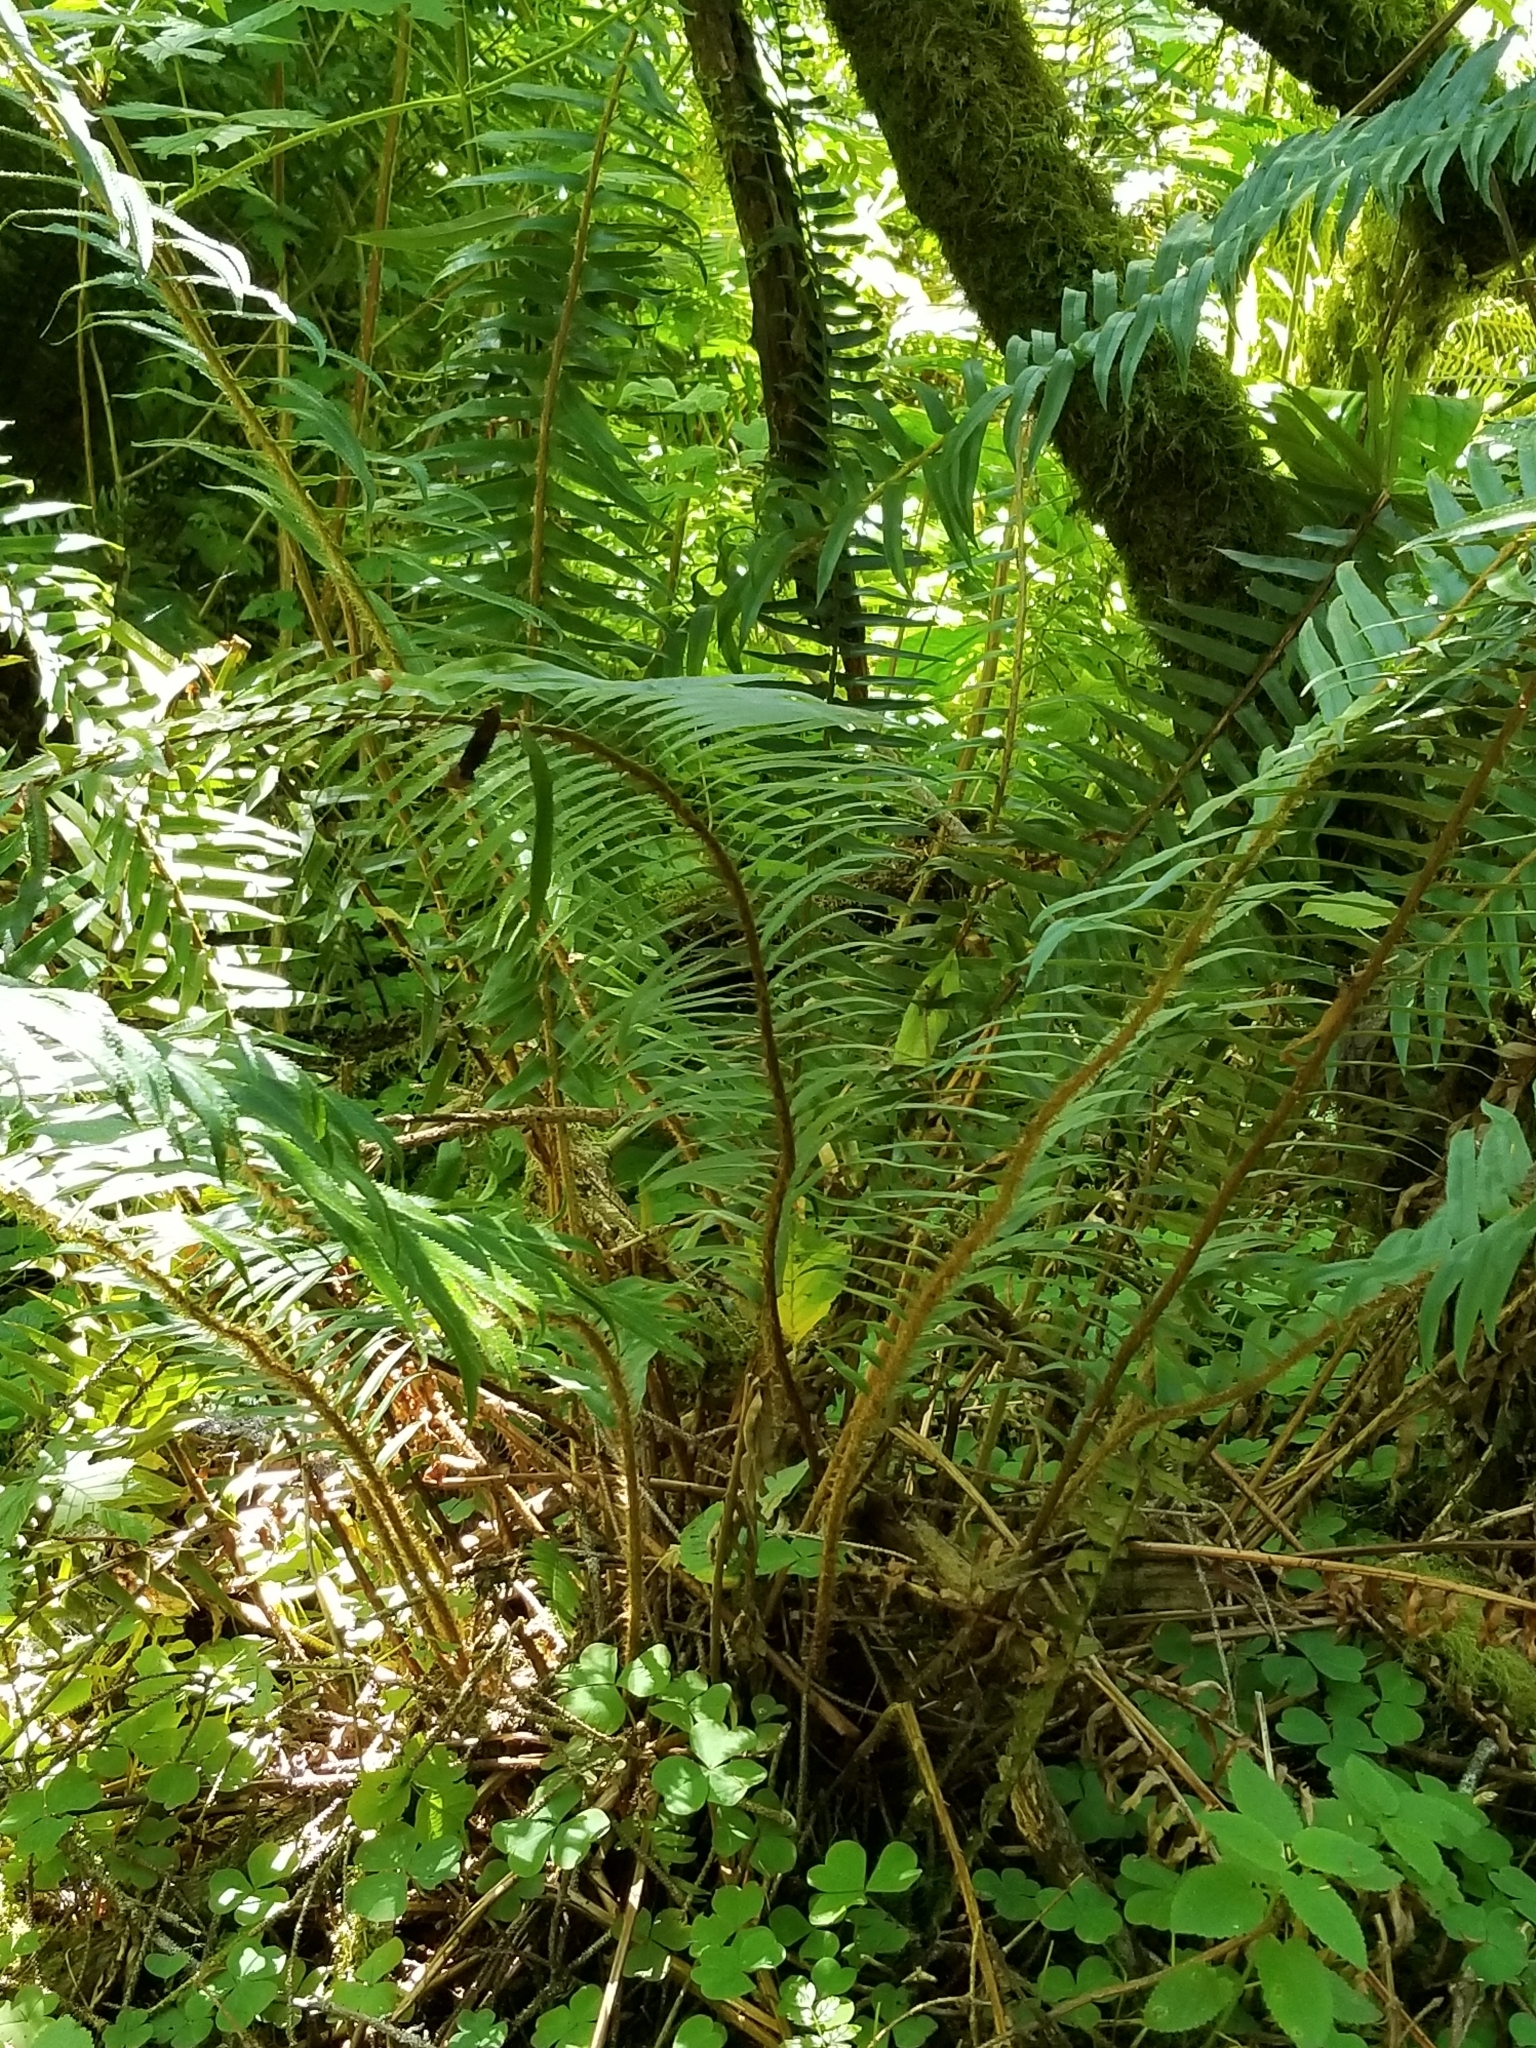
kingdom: Plantae
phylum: Tracheophyta
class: Polypodiopsida
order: Polypodiales
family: Dryopteridaceae
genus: Polystichum
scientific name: Polystichum munitum
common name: Western sword-fern
